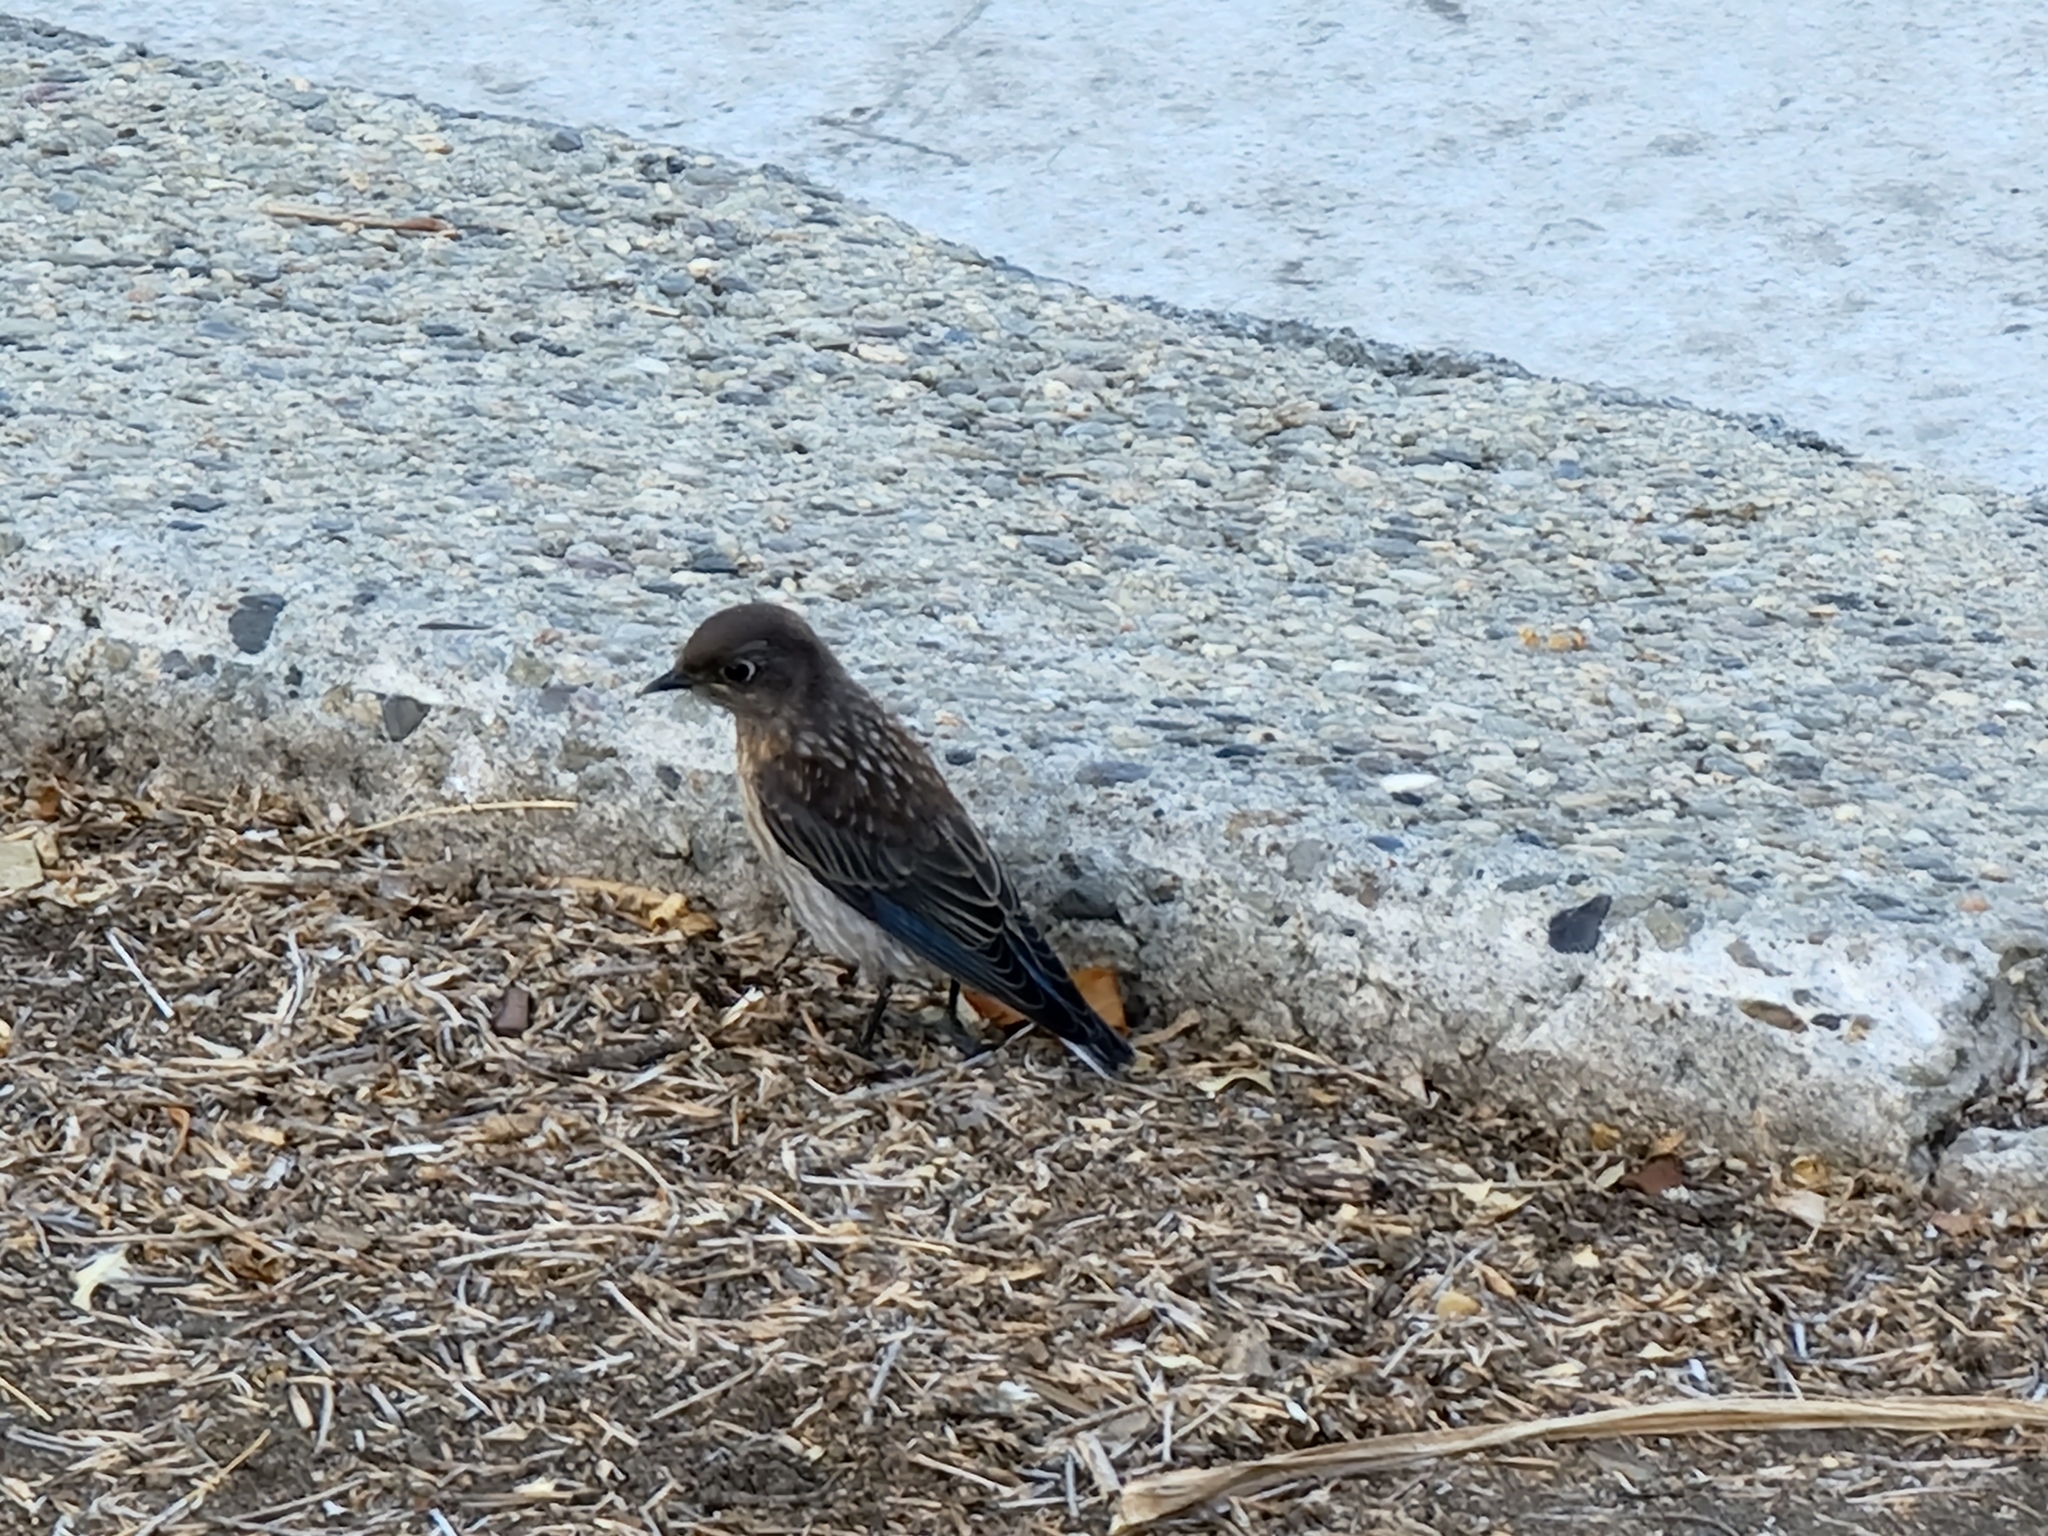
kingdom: Animalia
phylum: Chordata
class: Aves
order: Passeriformes
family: Turdidae
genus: Sialia
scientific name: Sialia mexicana
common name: Western bluebird
